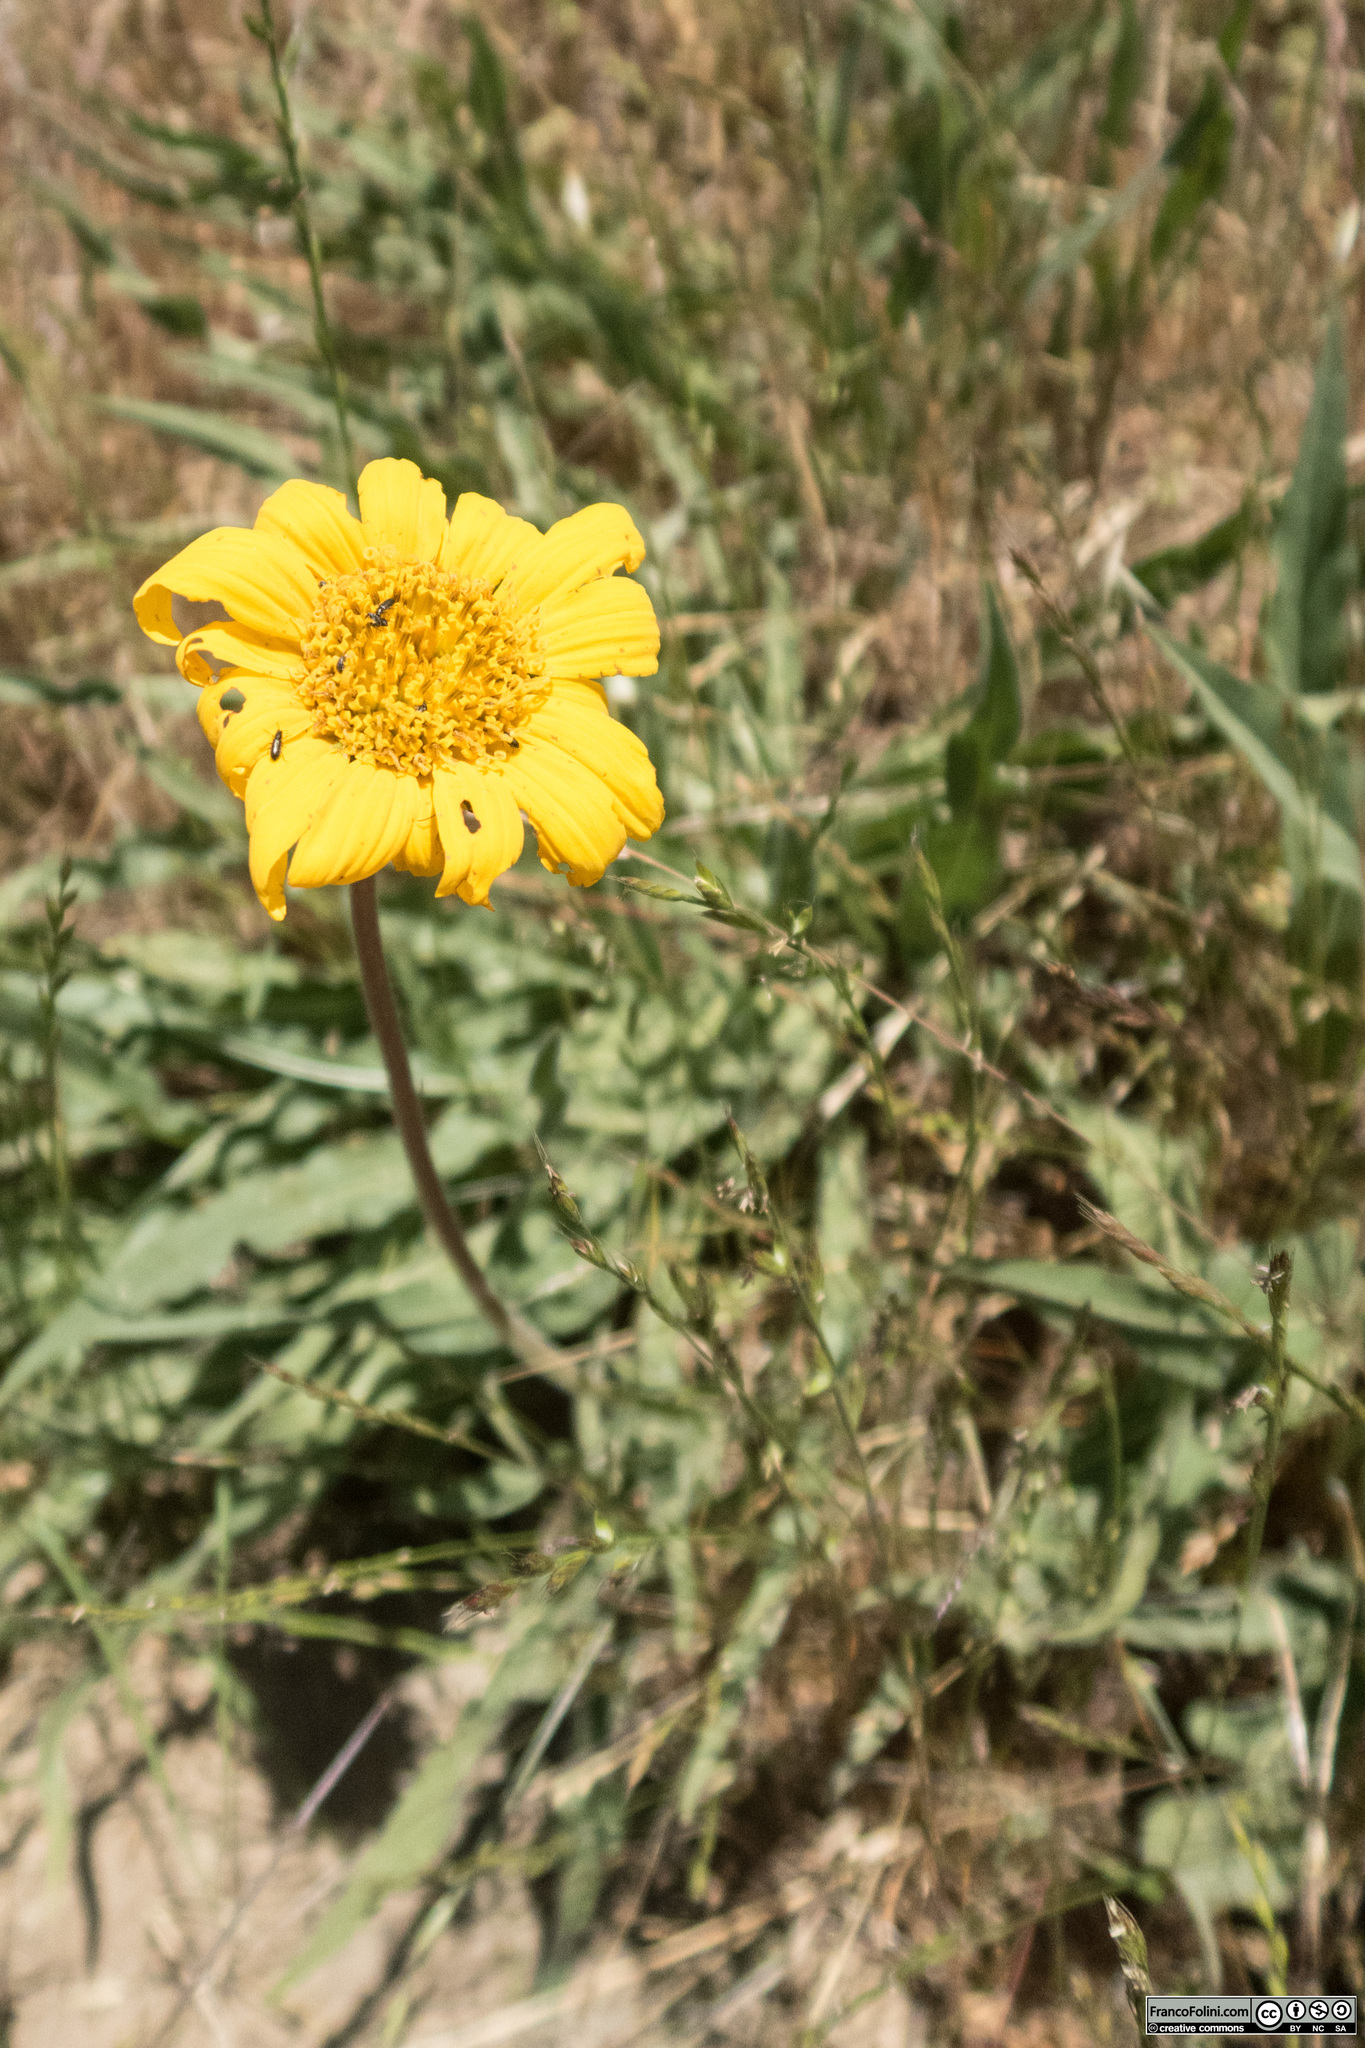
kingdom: Plantae
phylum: Tracheophyta
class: Magnoliopsida
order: Asterales
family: Asteraceae
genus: Wyethia
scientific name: Wyethia angustifolia
